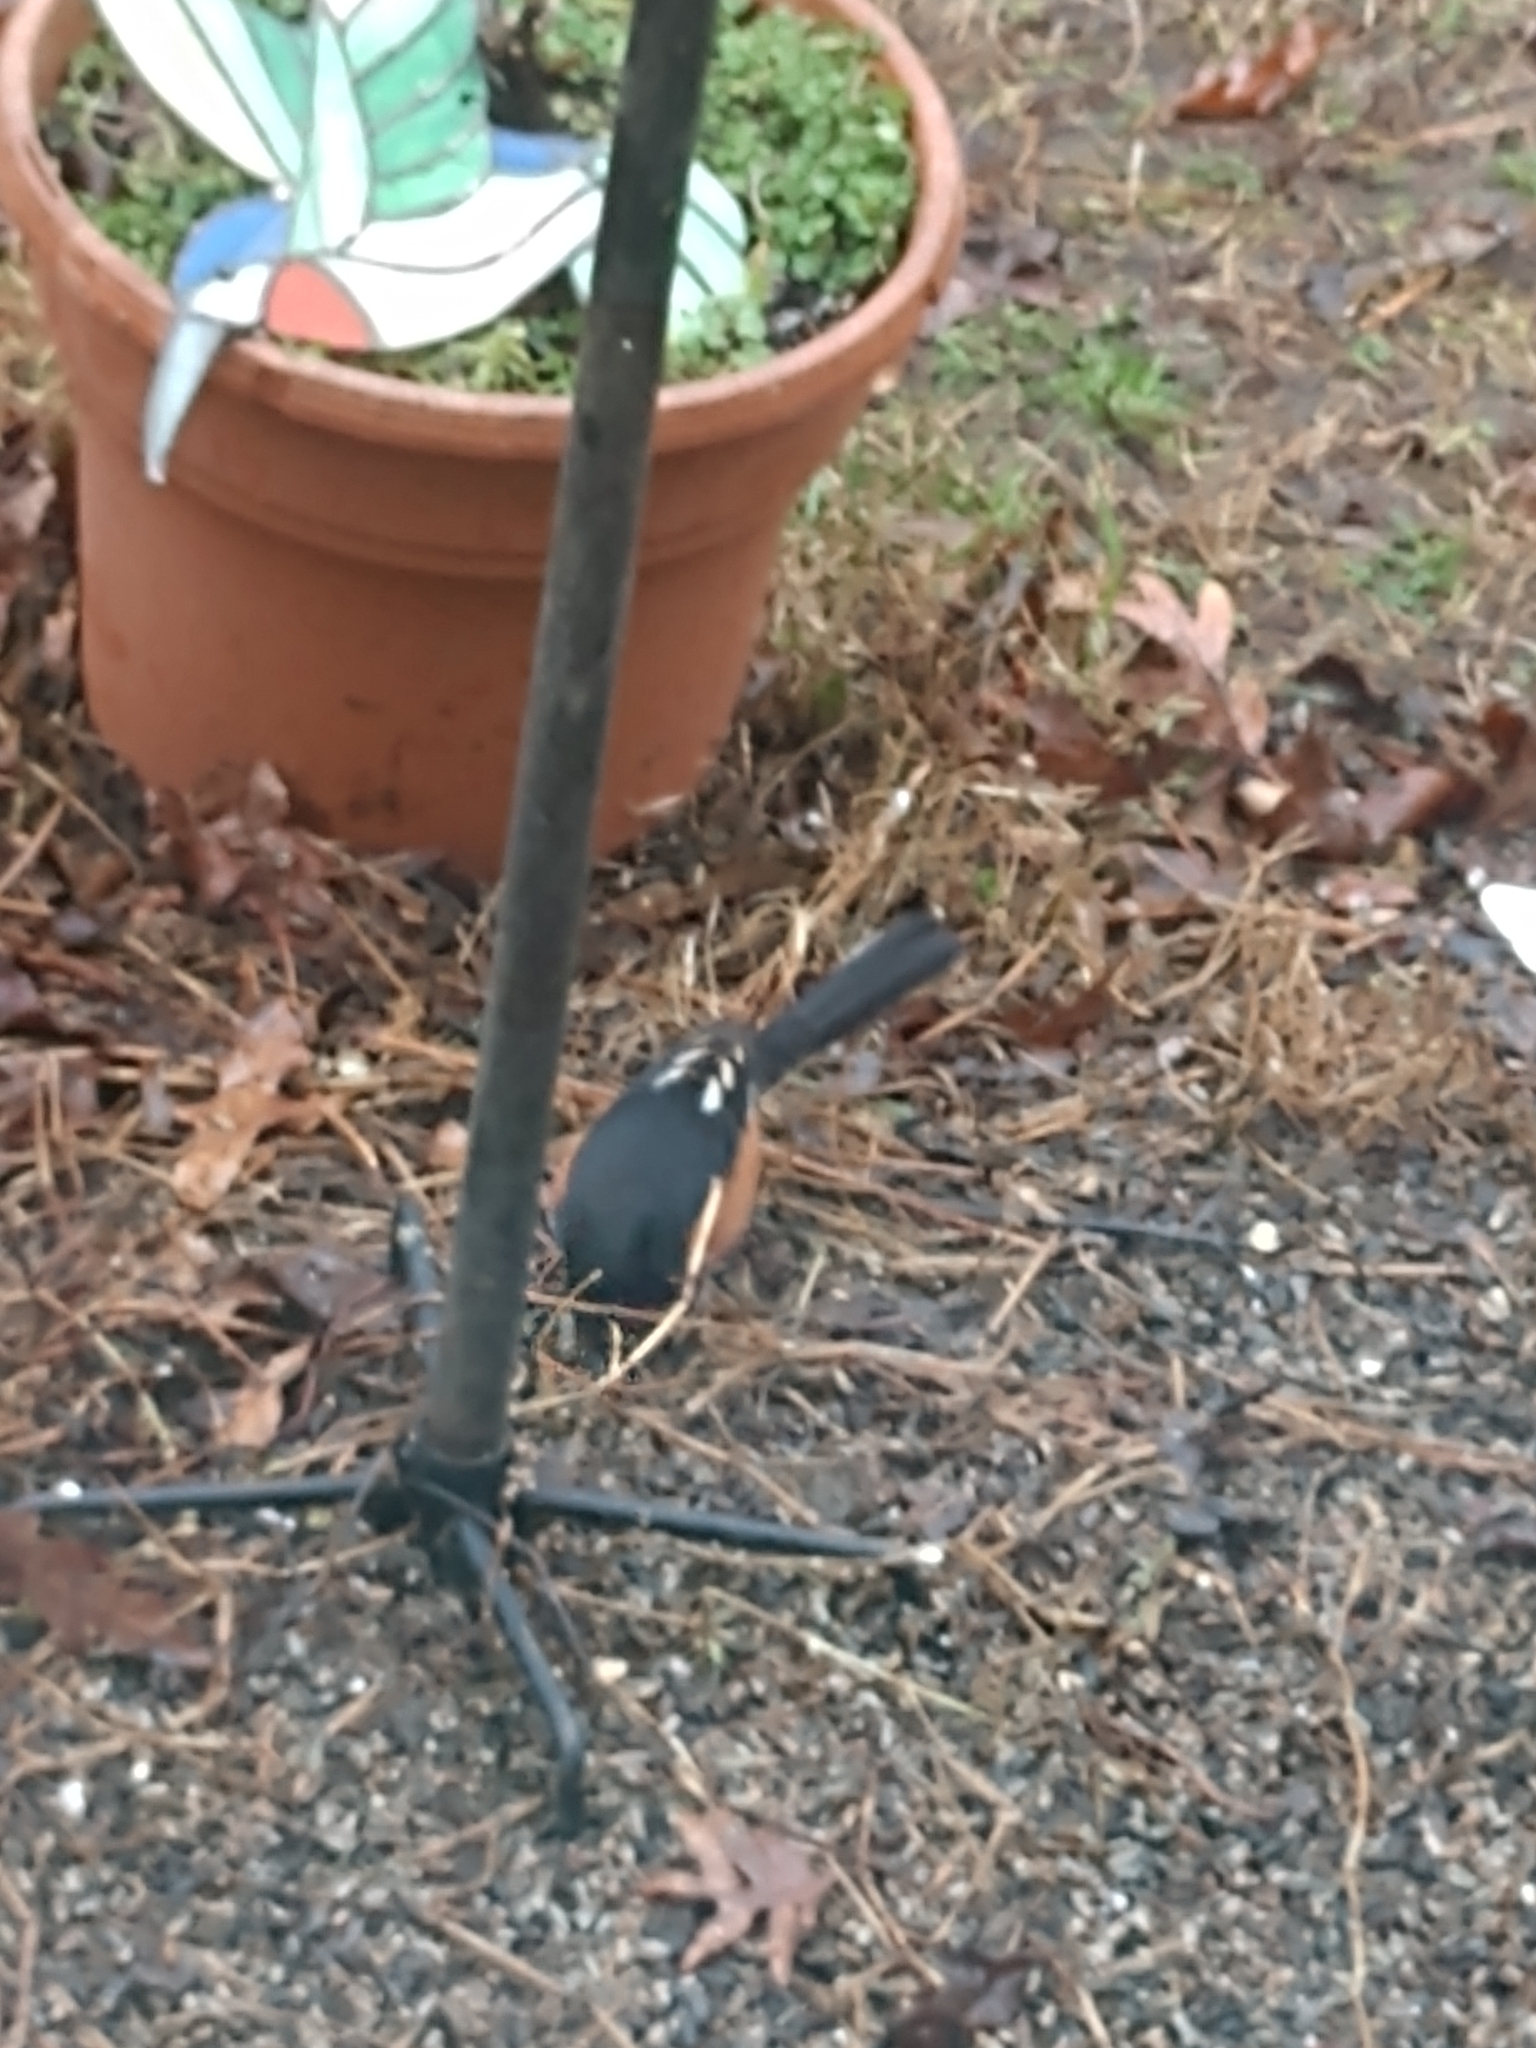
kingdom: Animalia
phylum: Chordata
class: Aves
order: Passeriformes
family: Passerellidae
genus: Pipilo
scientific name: Pipilo erythrophthalmus
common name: Eastern towhee
